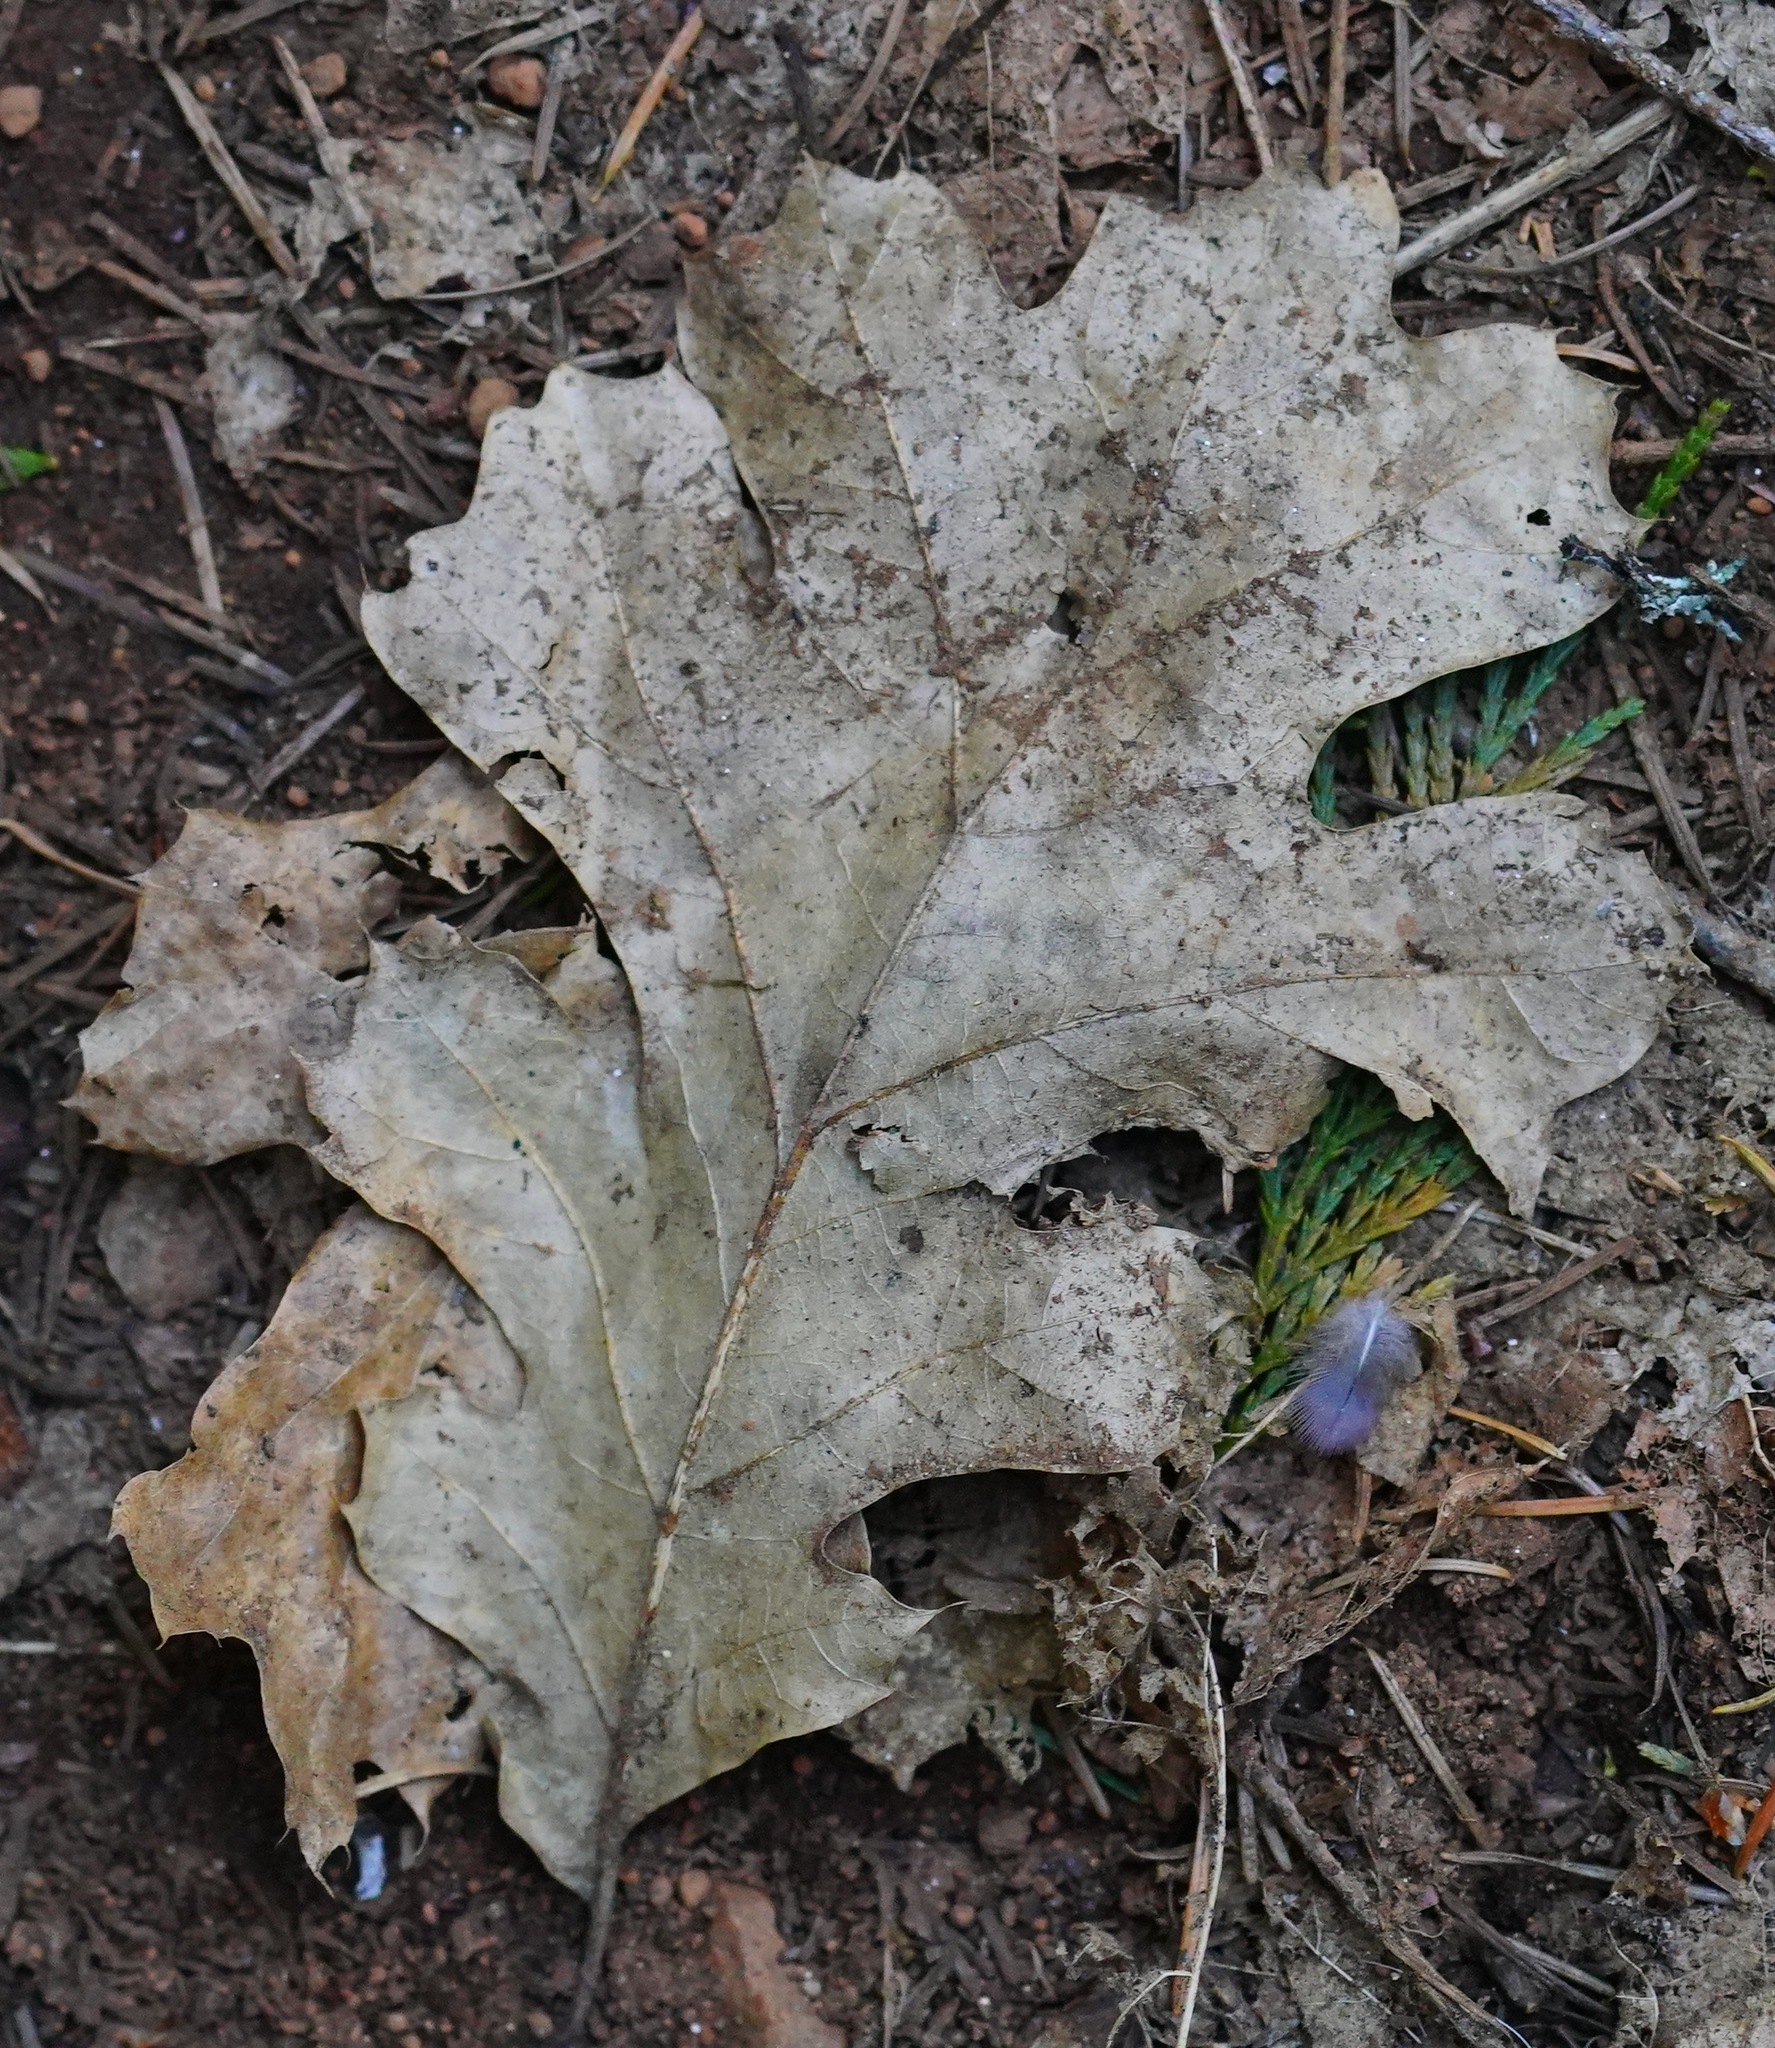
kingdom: Plantae
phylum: Tracheophyta
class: Magnoliopsida
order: Fagales
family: Fagaceae
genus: Quercus
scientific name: Quercus kelloggii
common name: California black oak
